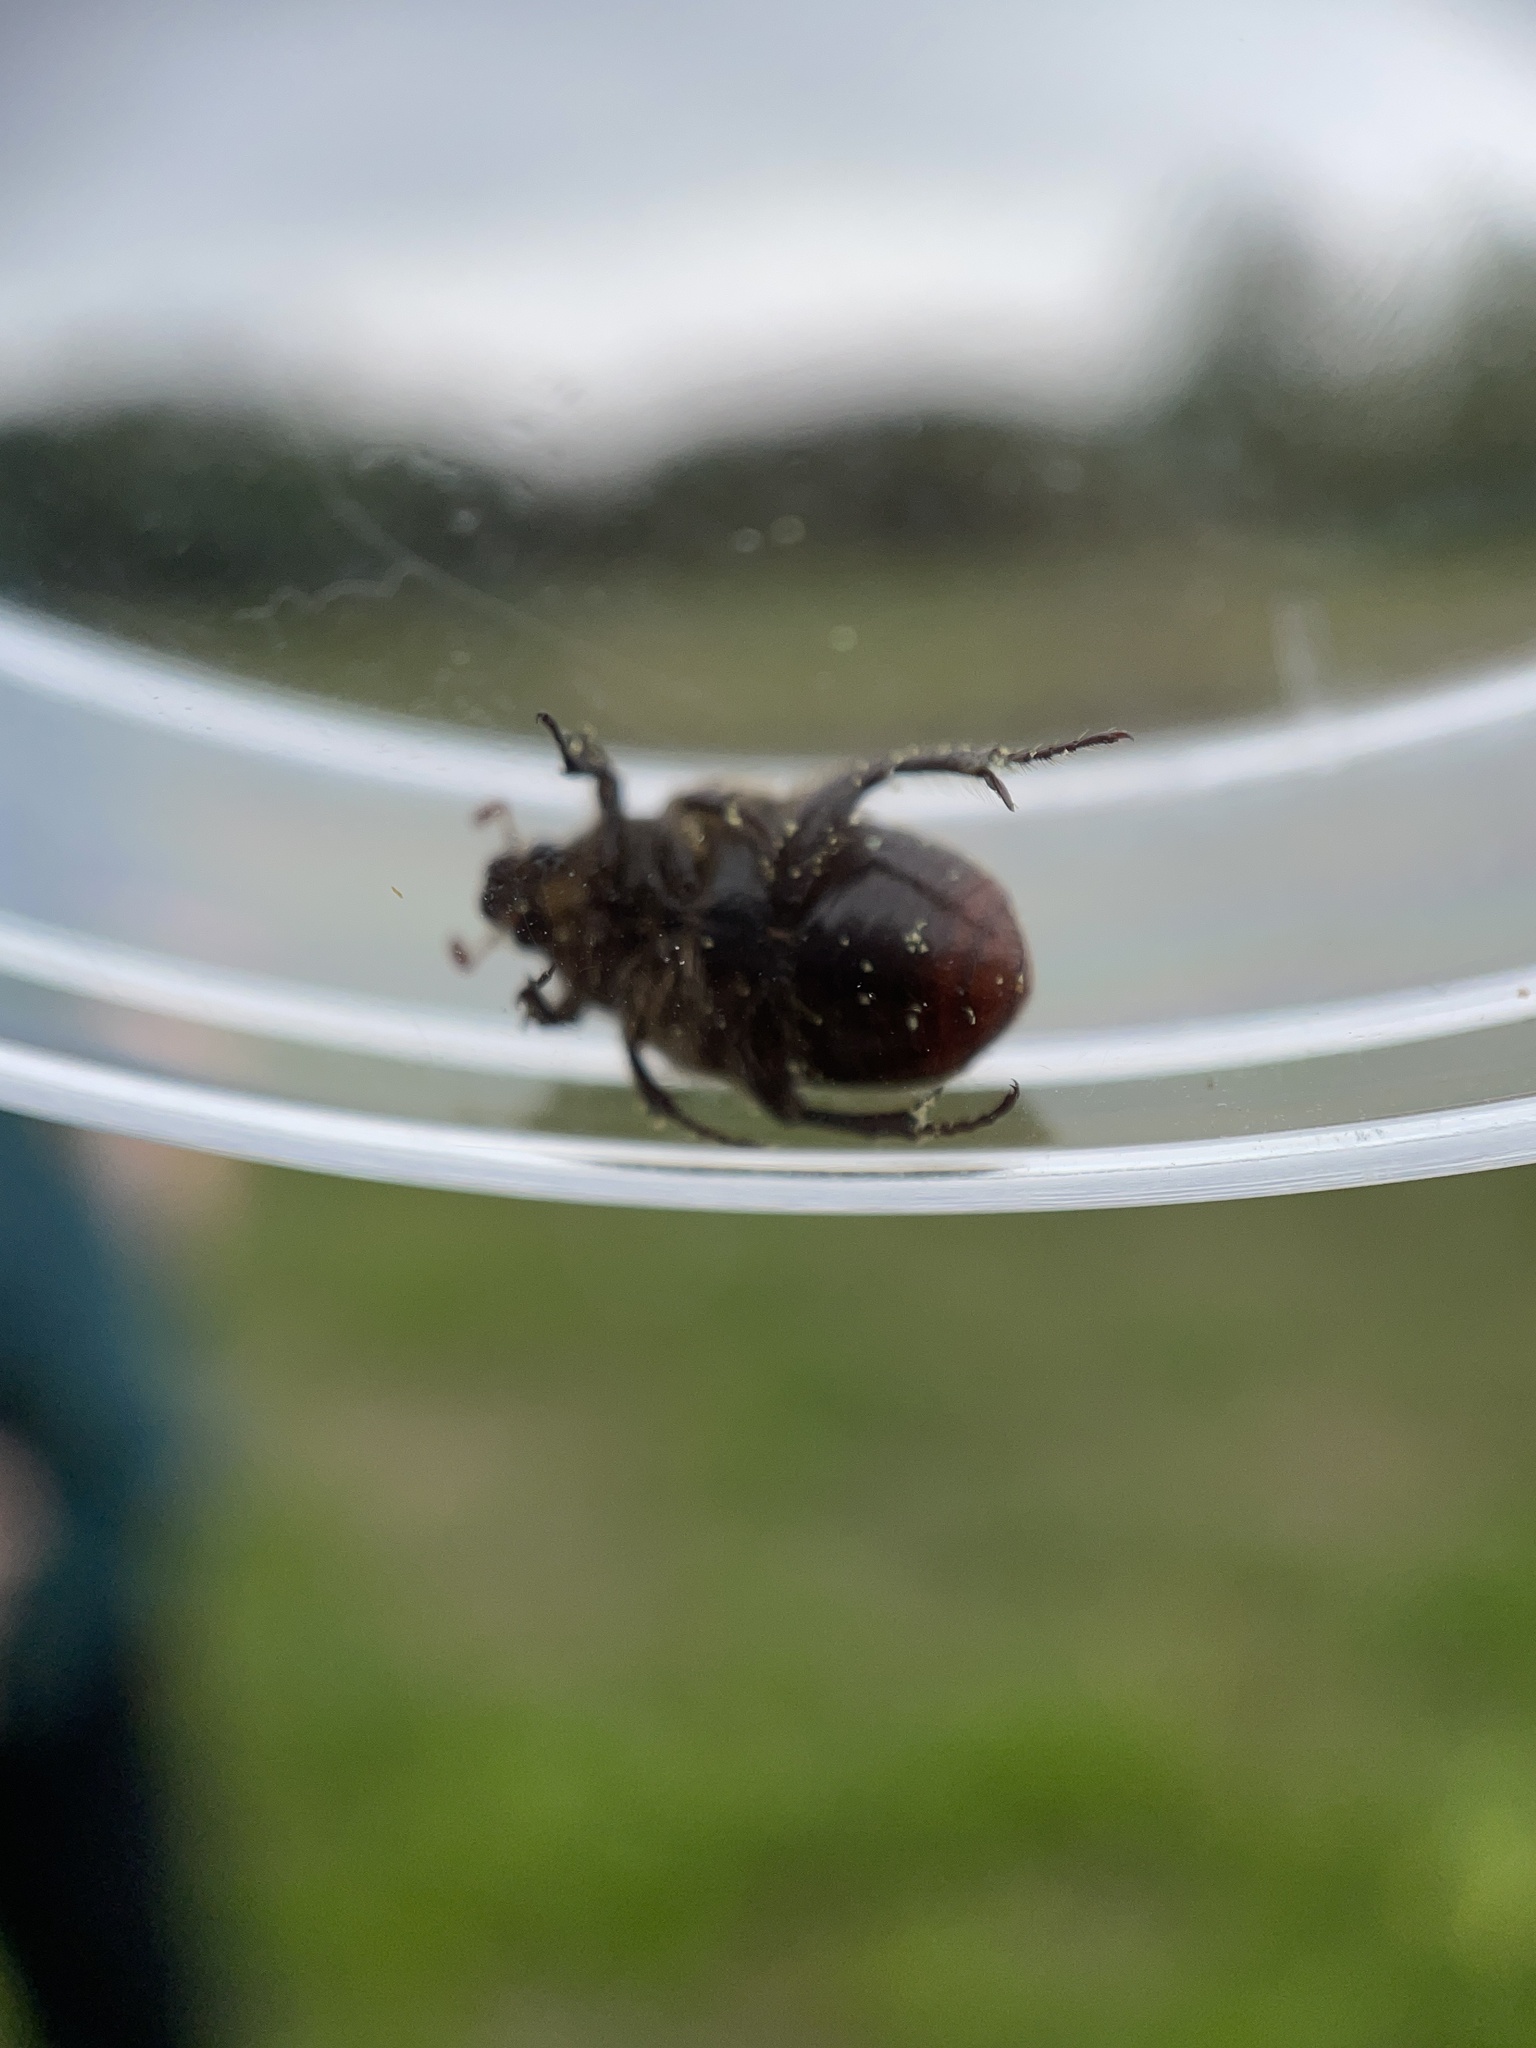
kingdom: Animalia
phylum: Arthropoda
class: Insecta
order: Coleoptera
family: Scarabaeidae
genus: Euphoria
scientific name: Euphoria kernii
